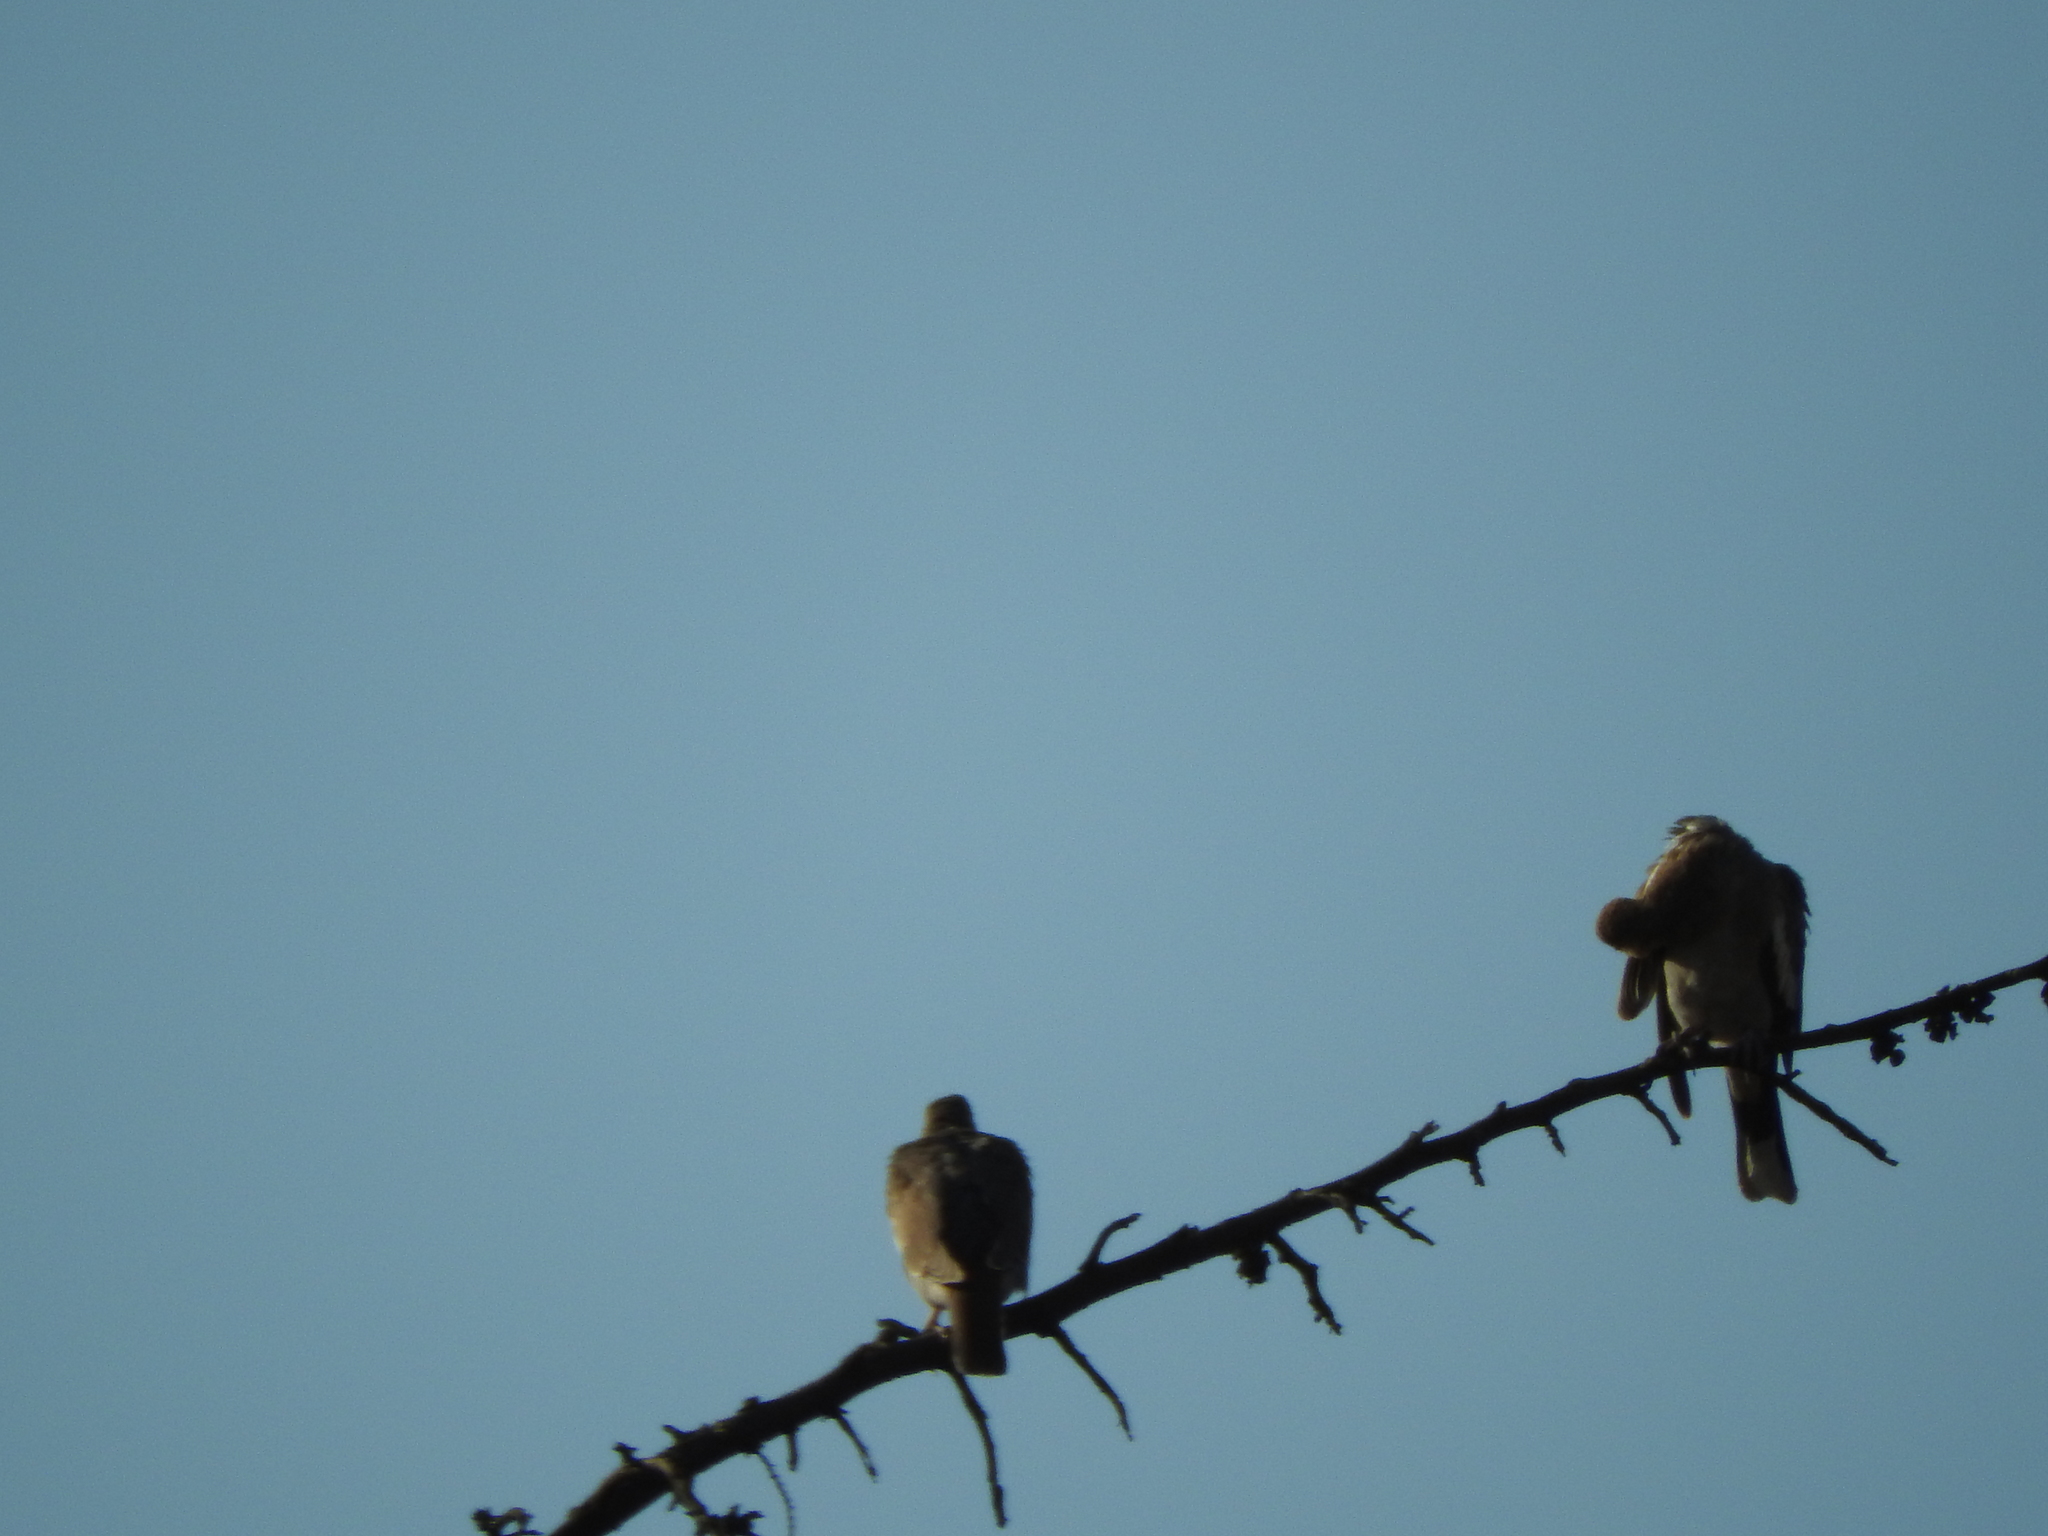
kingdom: Animalia
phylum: Chordata
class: Aves
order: Columbiformes
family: Columbidae
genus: Zenaida
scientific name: Zenaida asiatica
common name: White-winged dove
